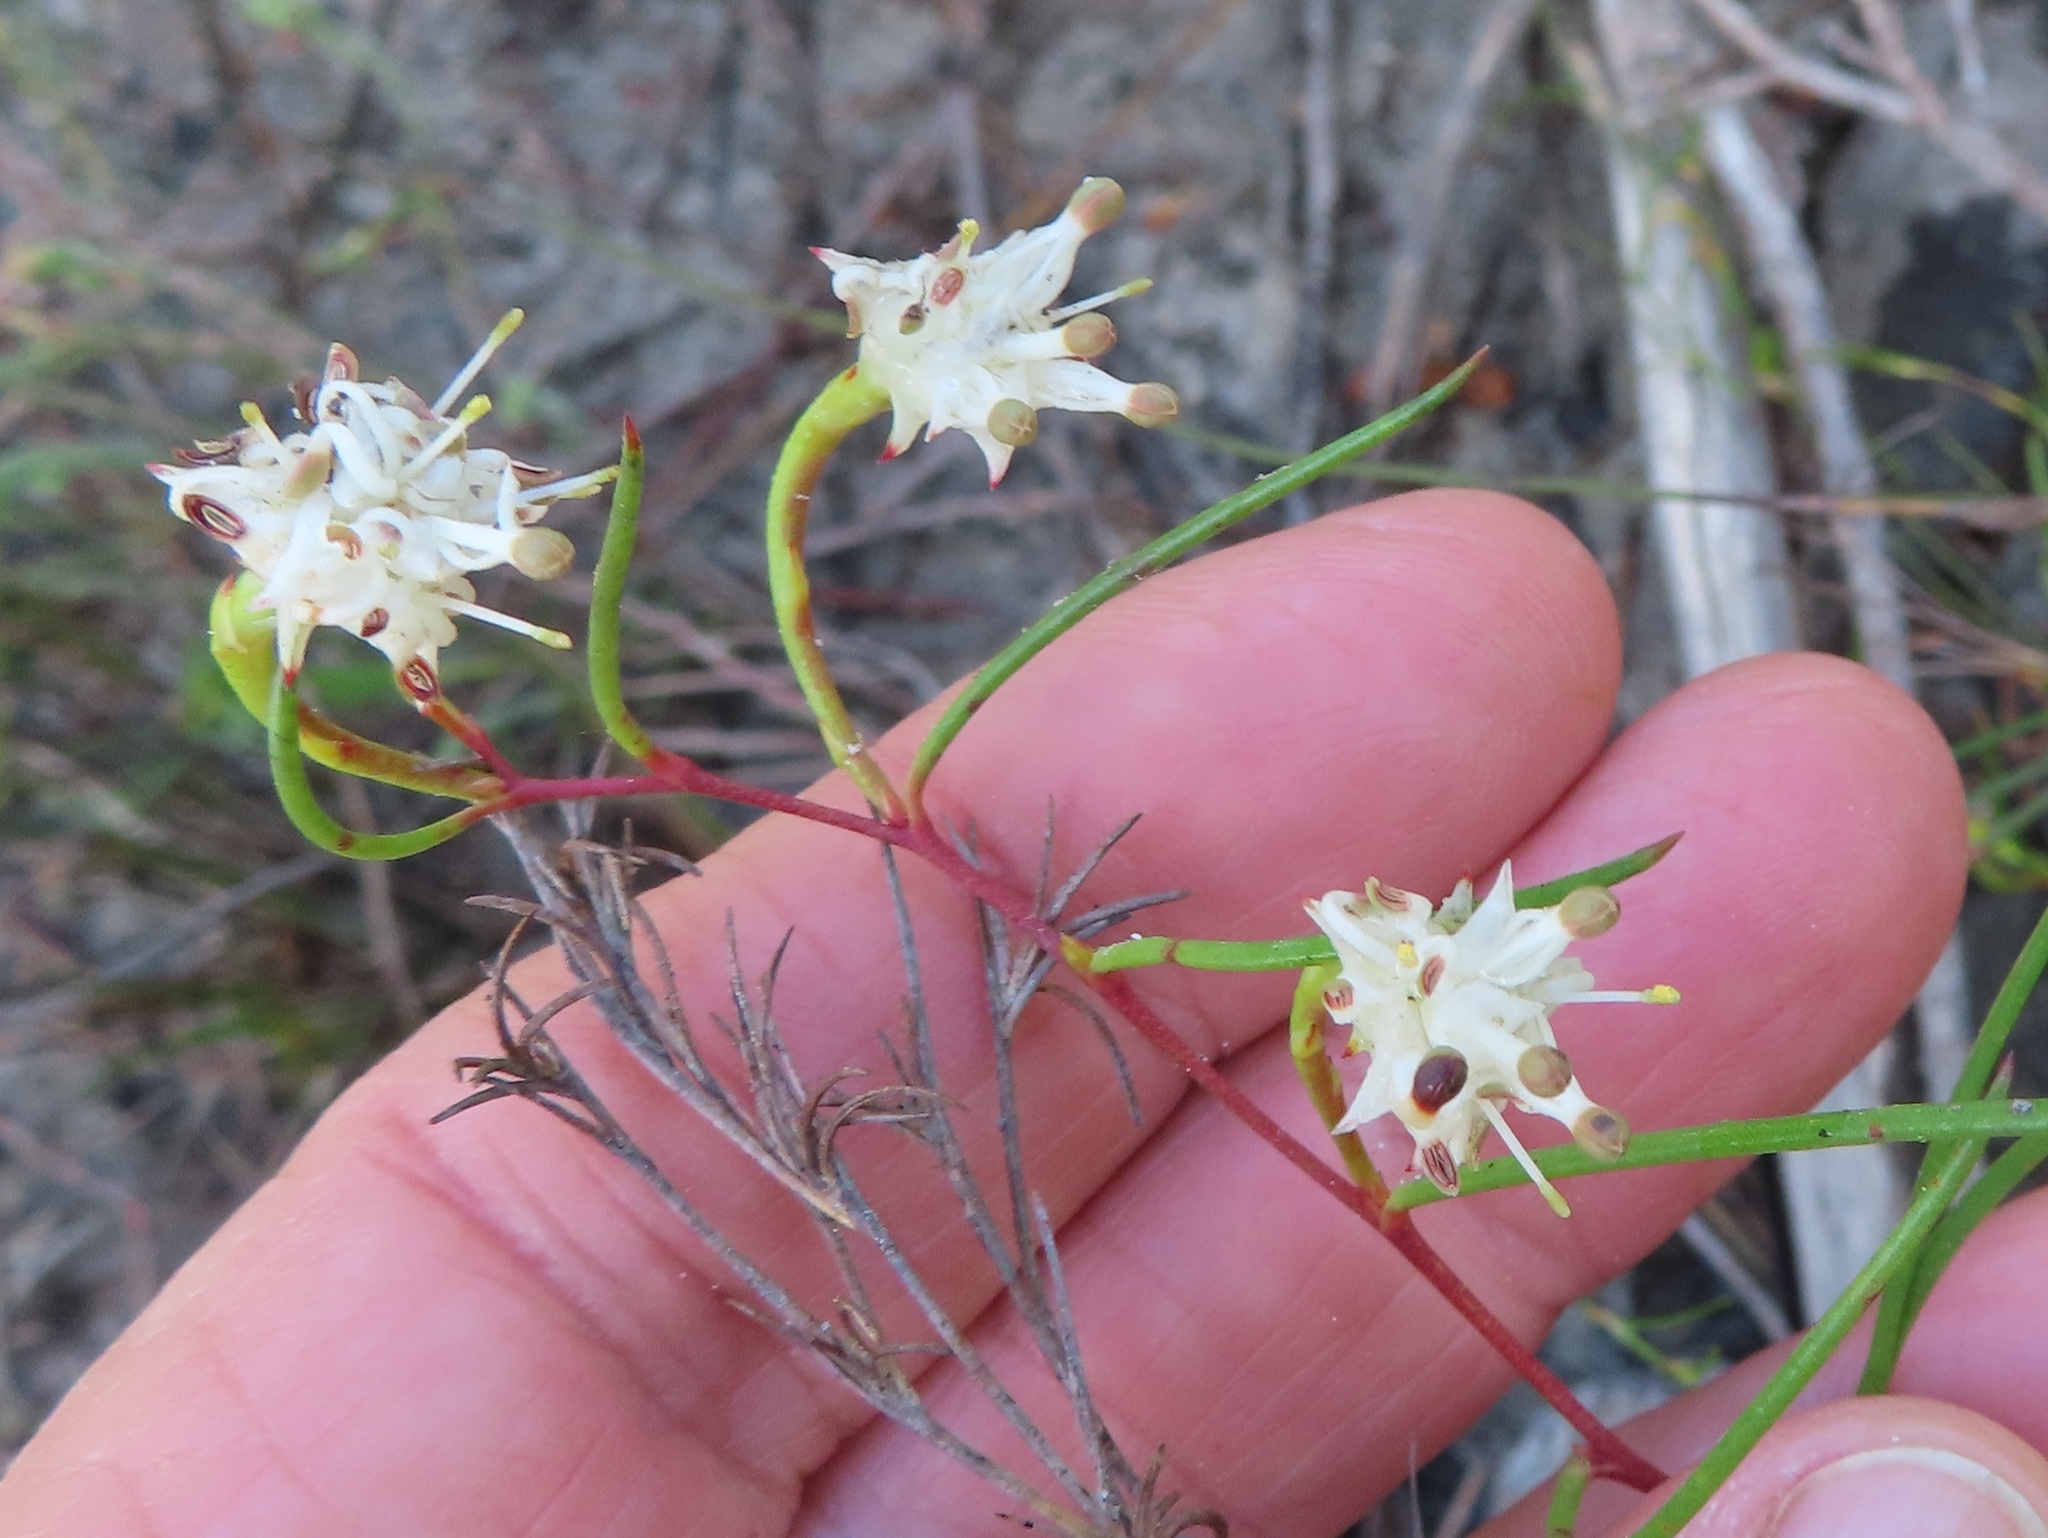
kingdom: Plantae
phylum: Tracheophyta
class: Magnoliopsida
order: Proteales
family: Proteaceae
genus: Serruria
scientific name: Serruria flagellifolia
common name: Houwhoek spiderhead
